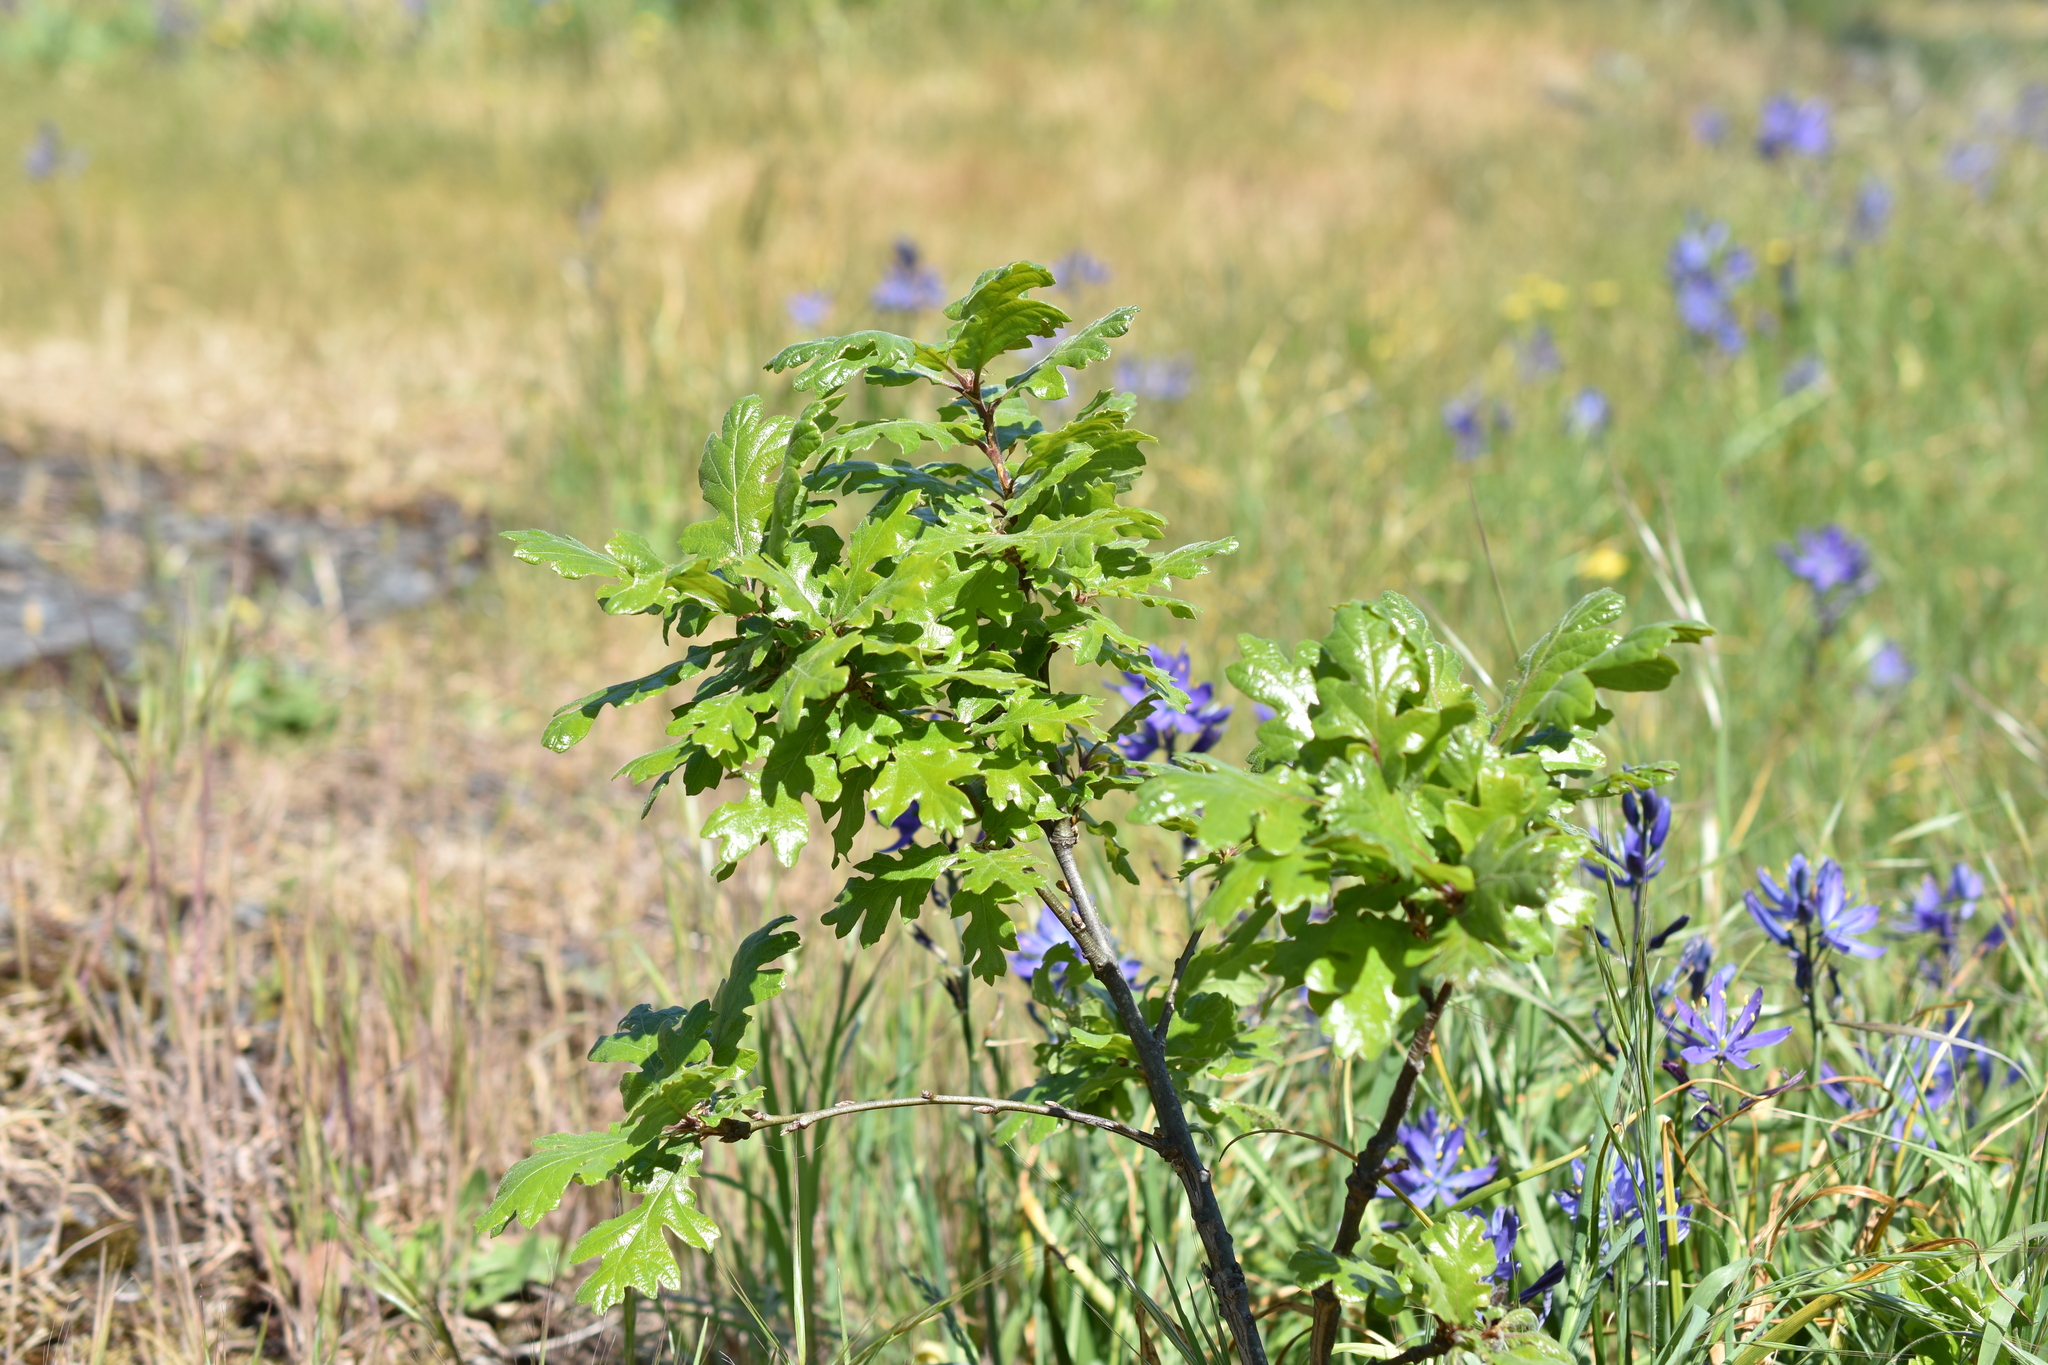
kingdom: Plantae
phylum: Tracheophyta
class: Magnoliopsida
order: Fagales
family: Fagaceae
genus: Quercus
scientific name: Quercus garryana
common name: Garry oak
